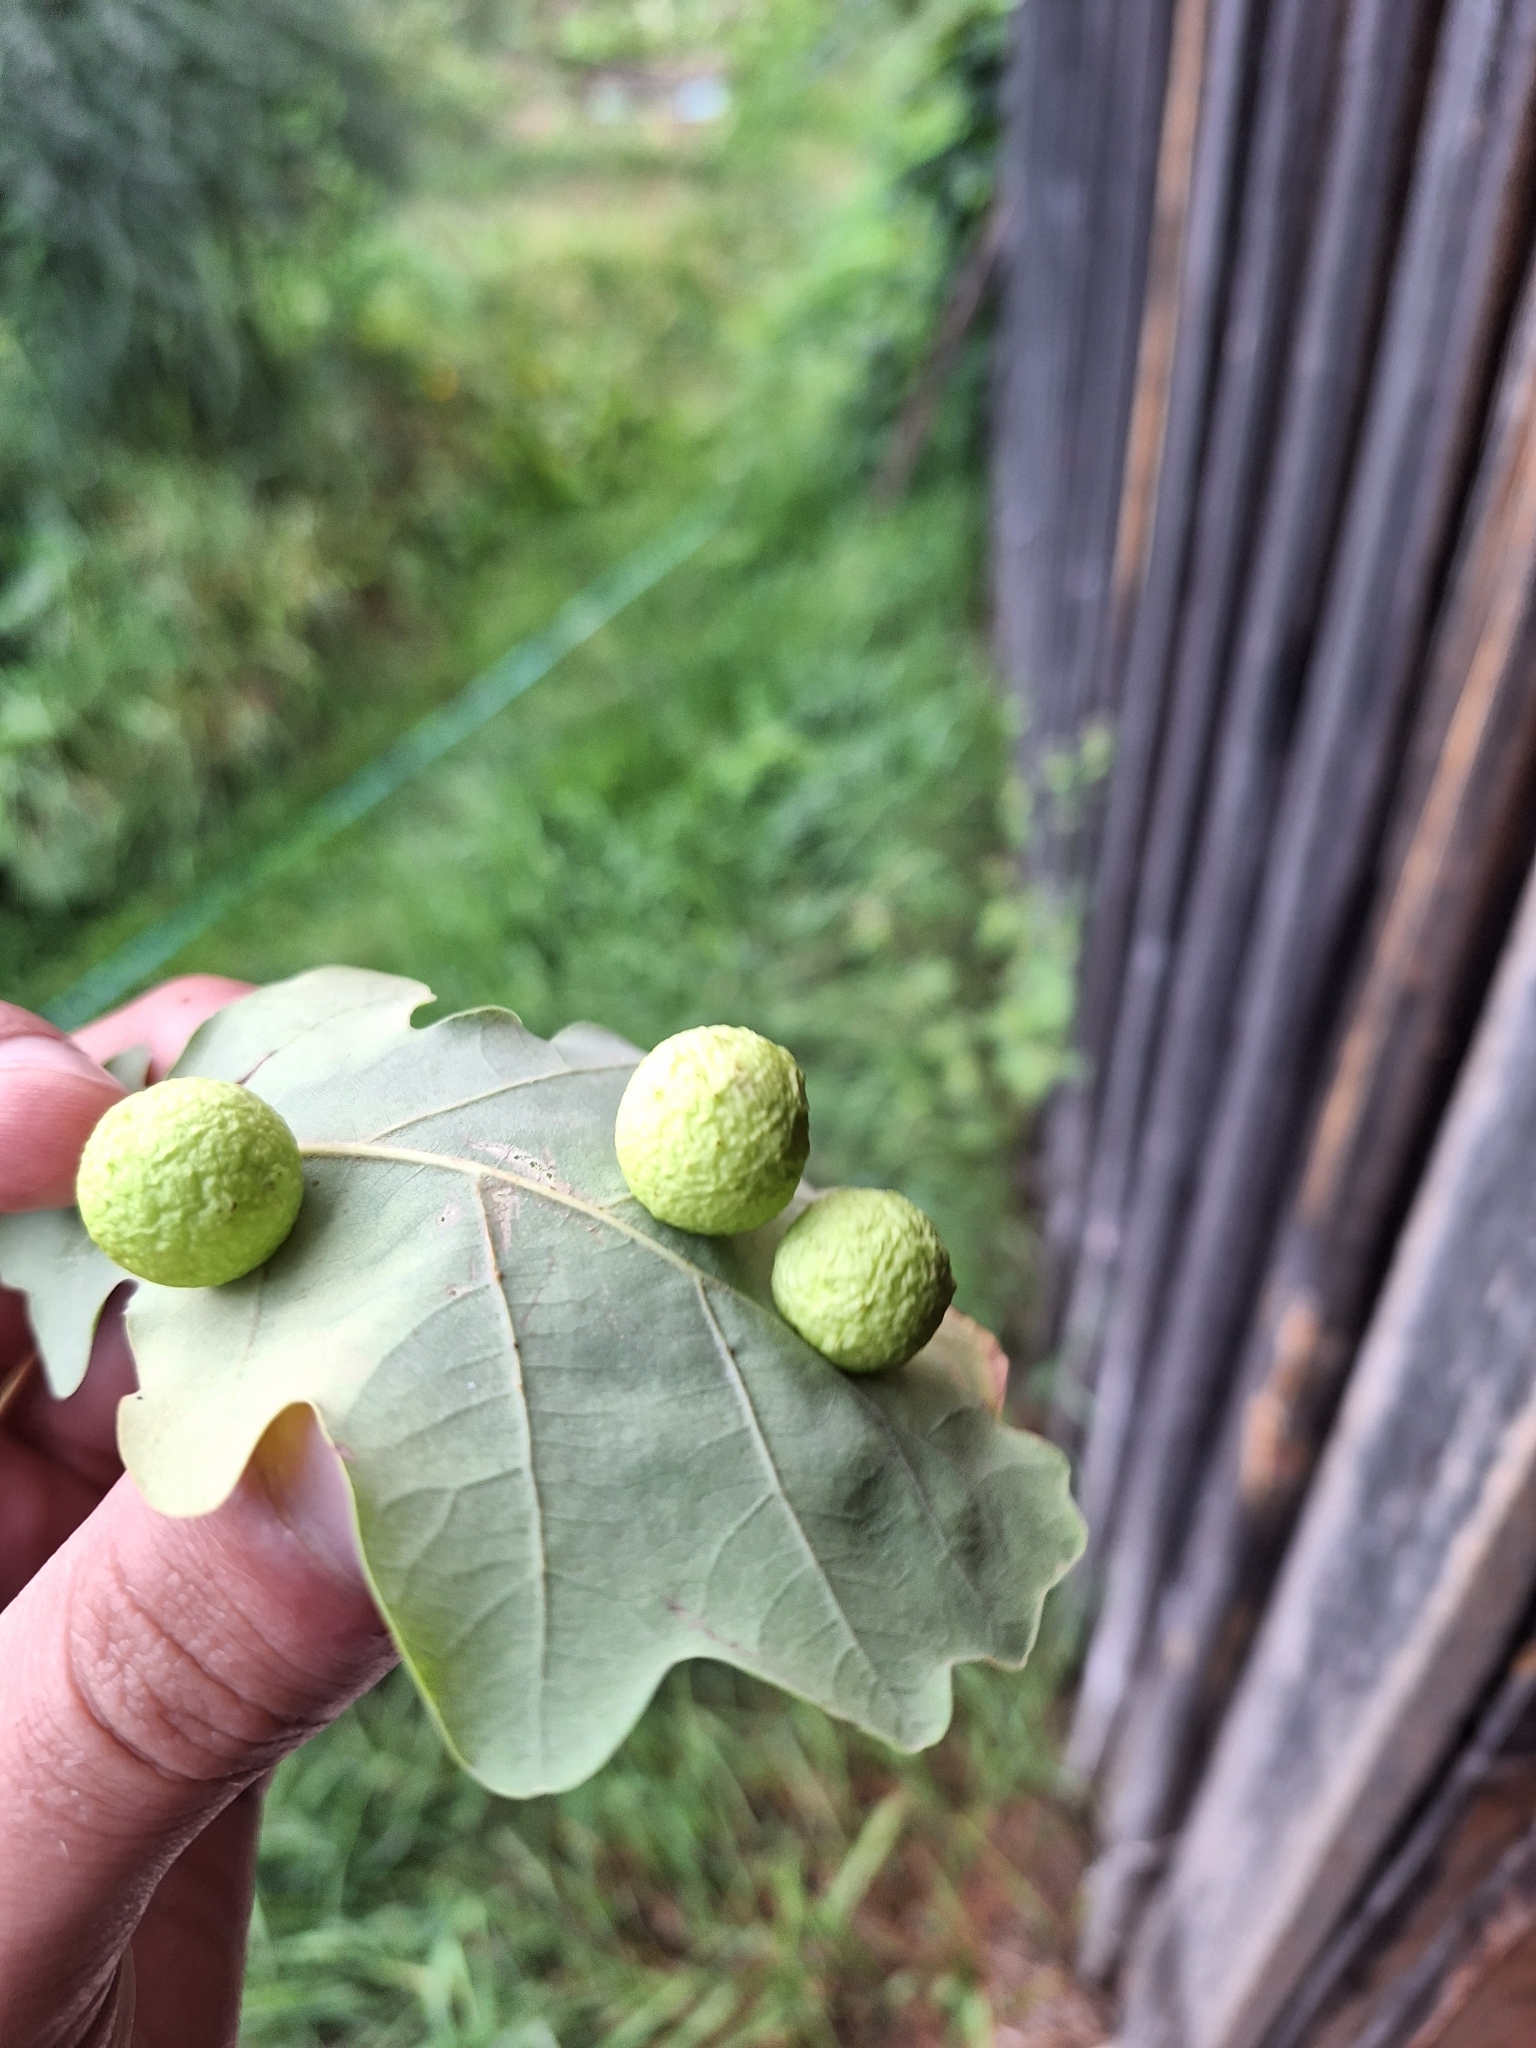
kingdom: Animalia
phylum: Arthropoda
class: Insecta
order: Hymenoptera
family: Cynipidae
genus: Cynips
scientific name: Cynips quercusfolii
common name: Cherry gall
